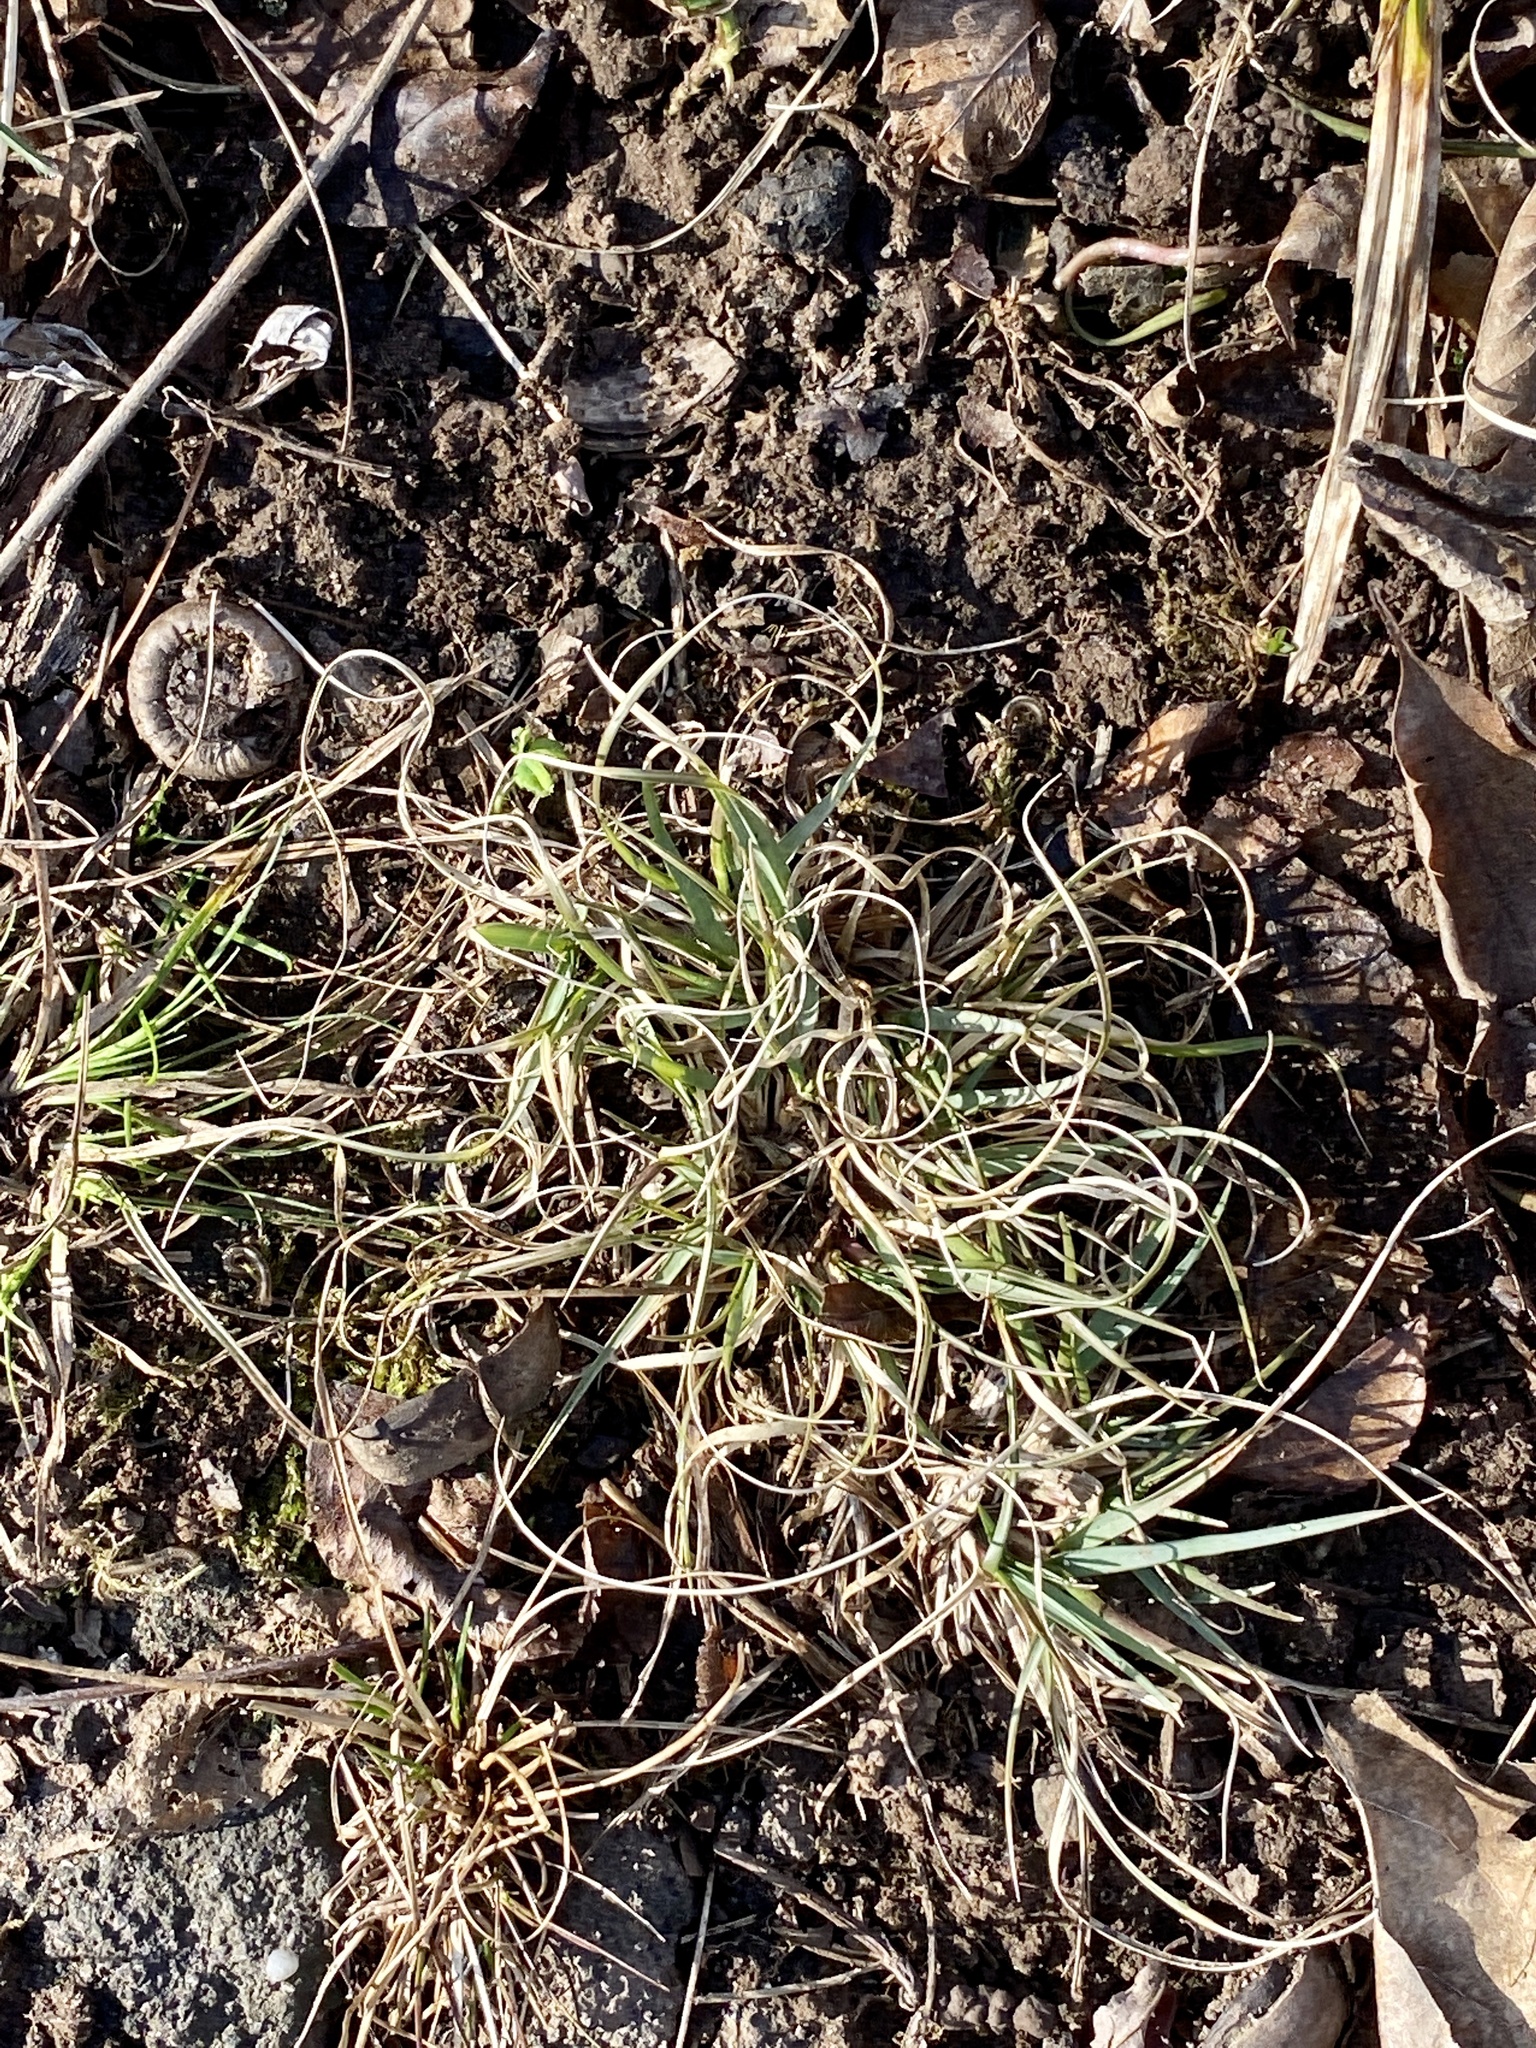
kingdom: Plantae
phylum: Tracheophyta
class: Liliopsida
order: Poales
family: Poaceae
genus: Danthonia
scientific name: Danthonia spicata
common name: Common wild oatgrass
